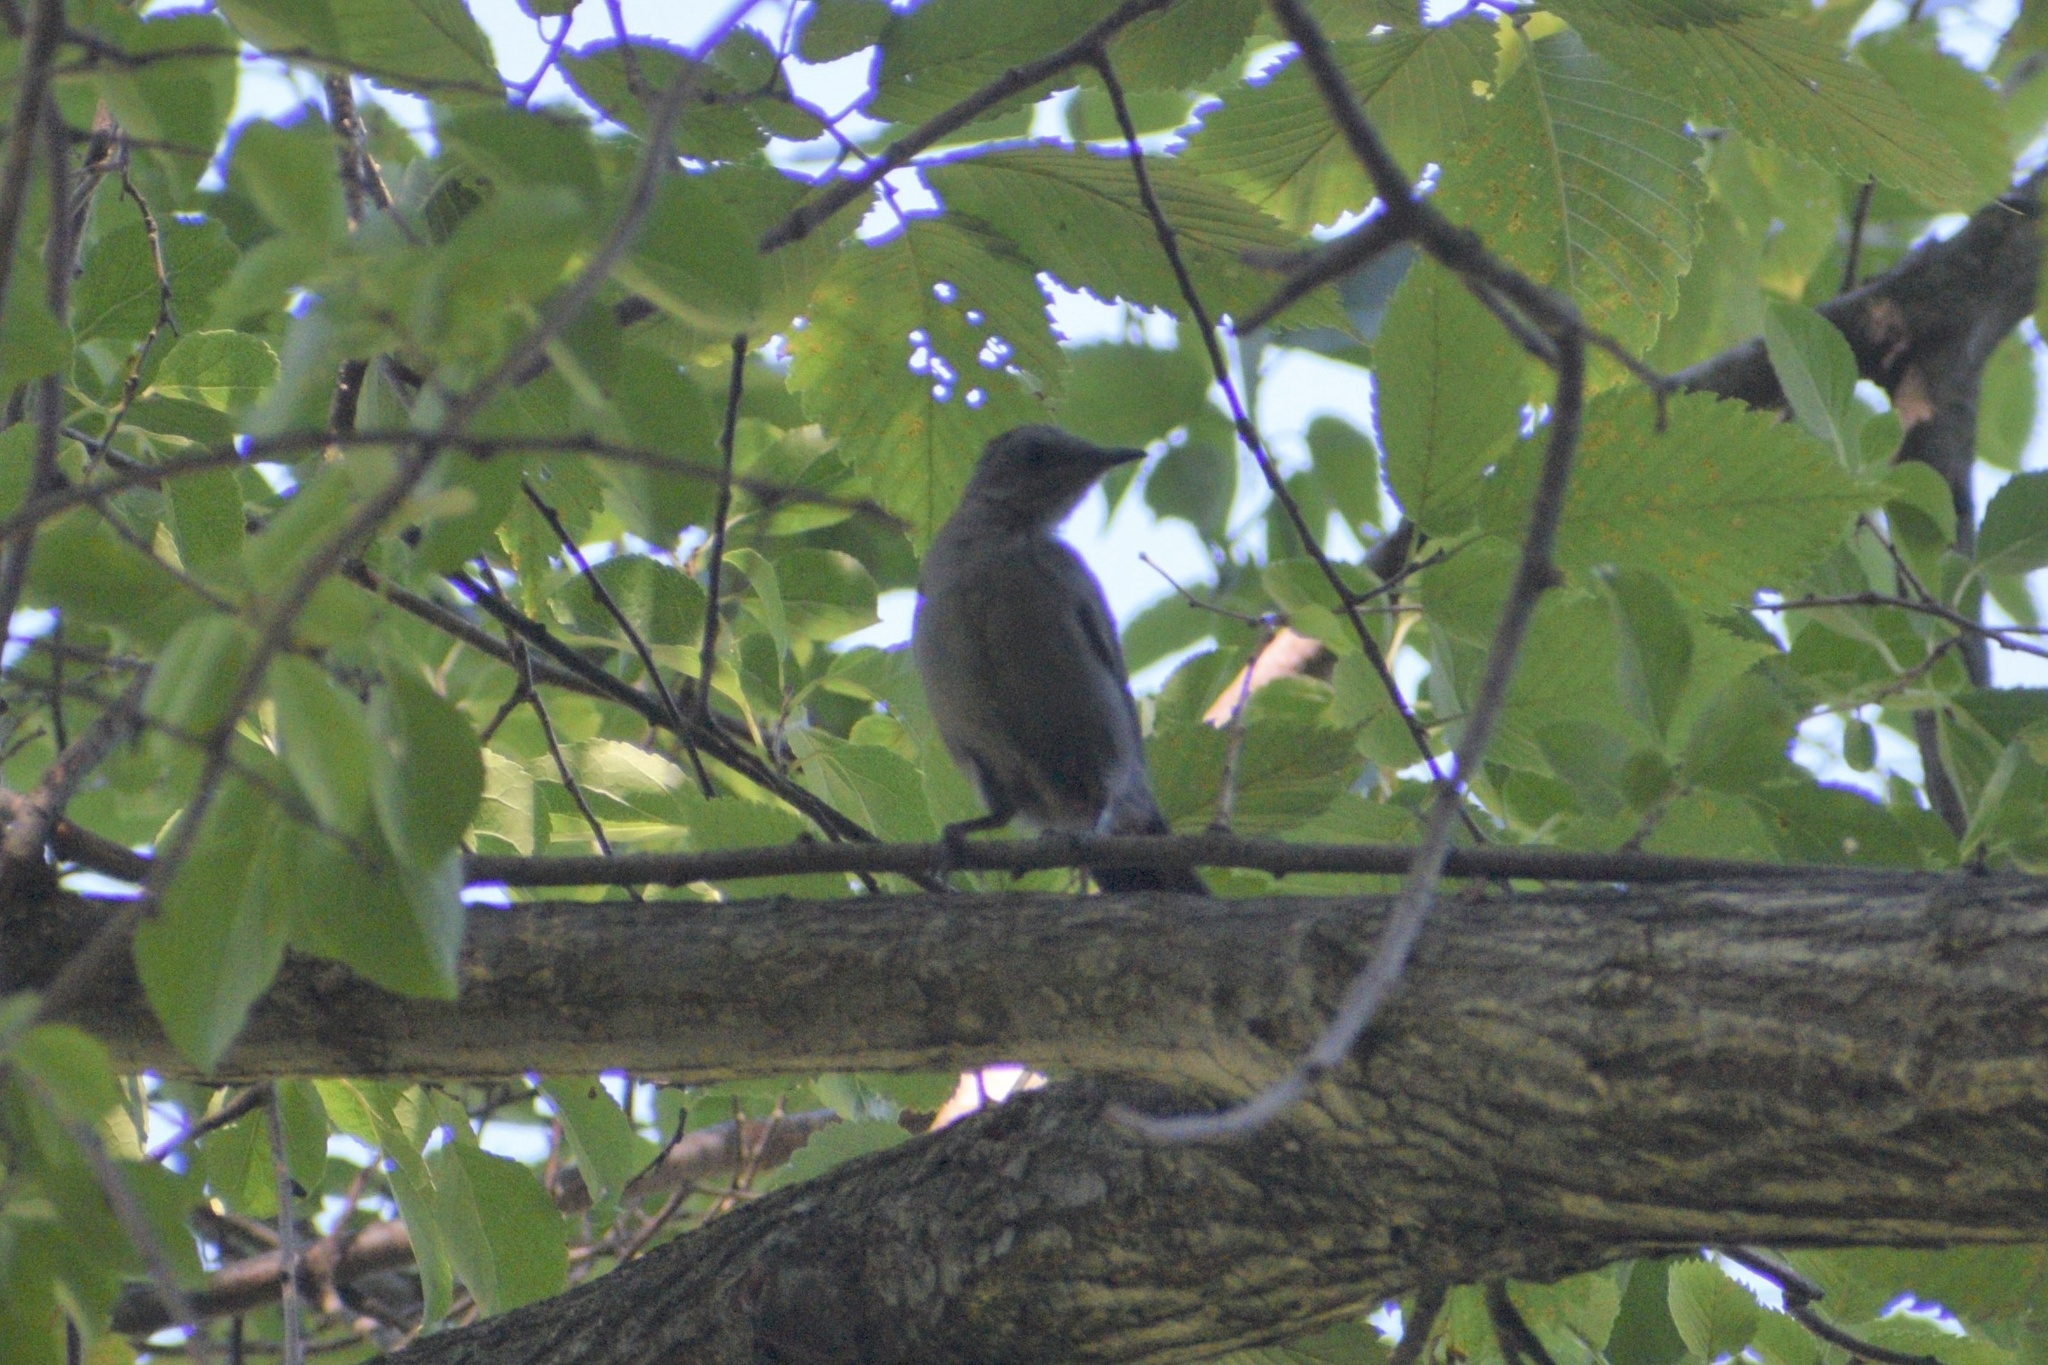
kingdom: Animalia
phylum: Chordata
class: Aves
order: Passeriformes
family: Mimidae
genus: Dumetella
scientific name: Dumetella carolinensis
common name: Gray catbird
